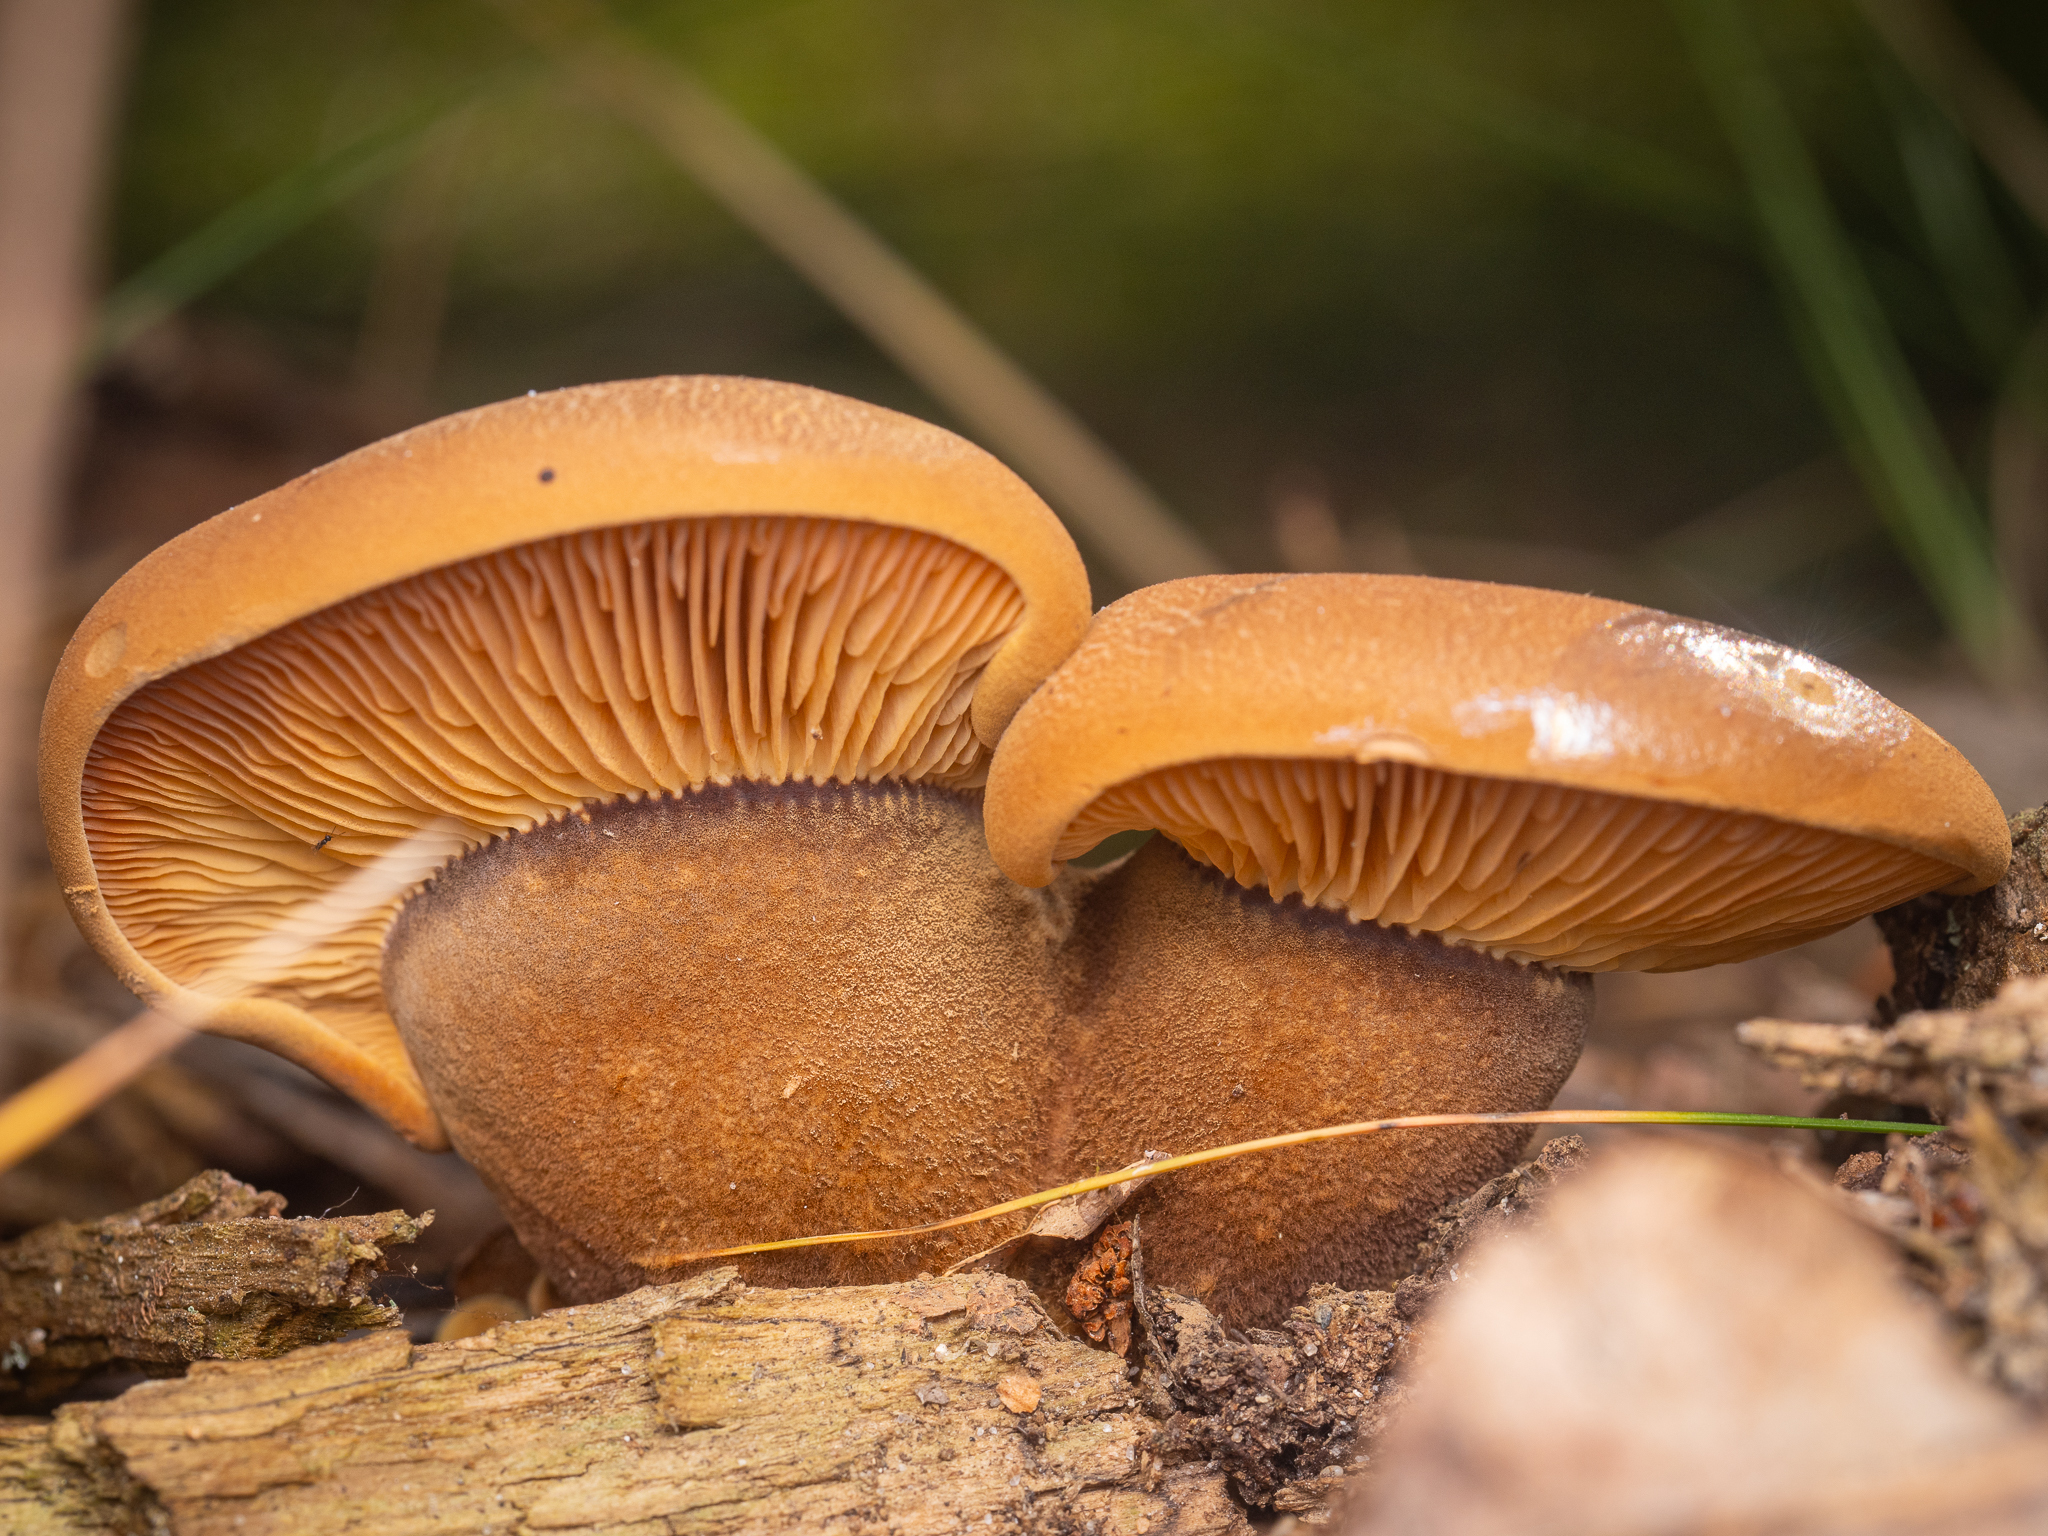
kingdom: Fungi
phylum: Basidiomycota
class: Agaricomycetes
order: Boletales
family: Tapinellaceae
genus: Tapinella
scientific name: Tapinella atrotomentosa
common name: Velvet rollrim
